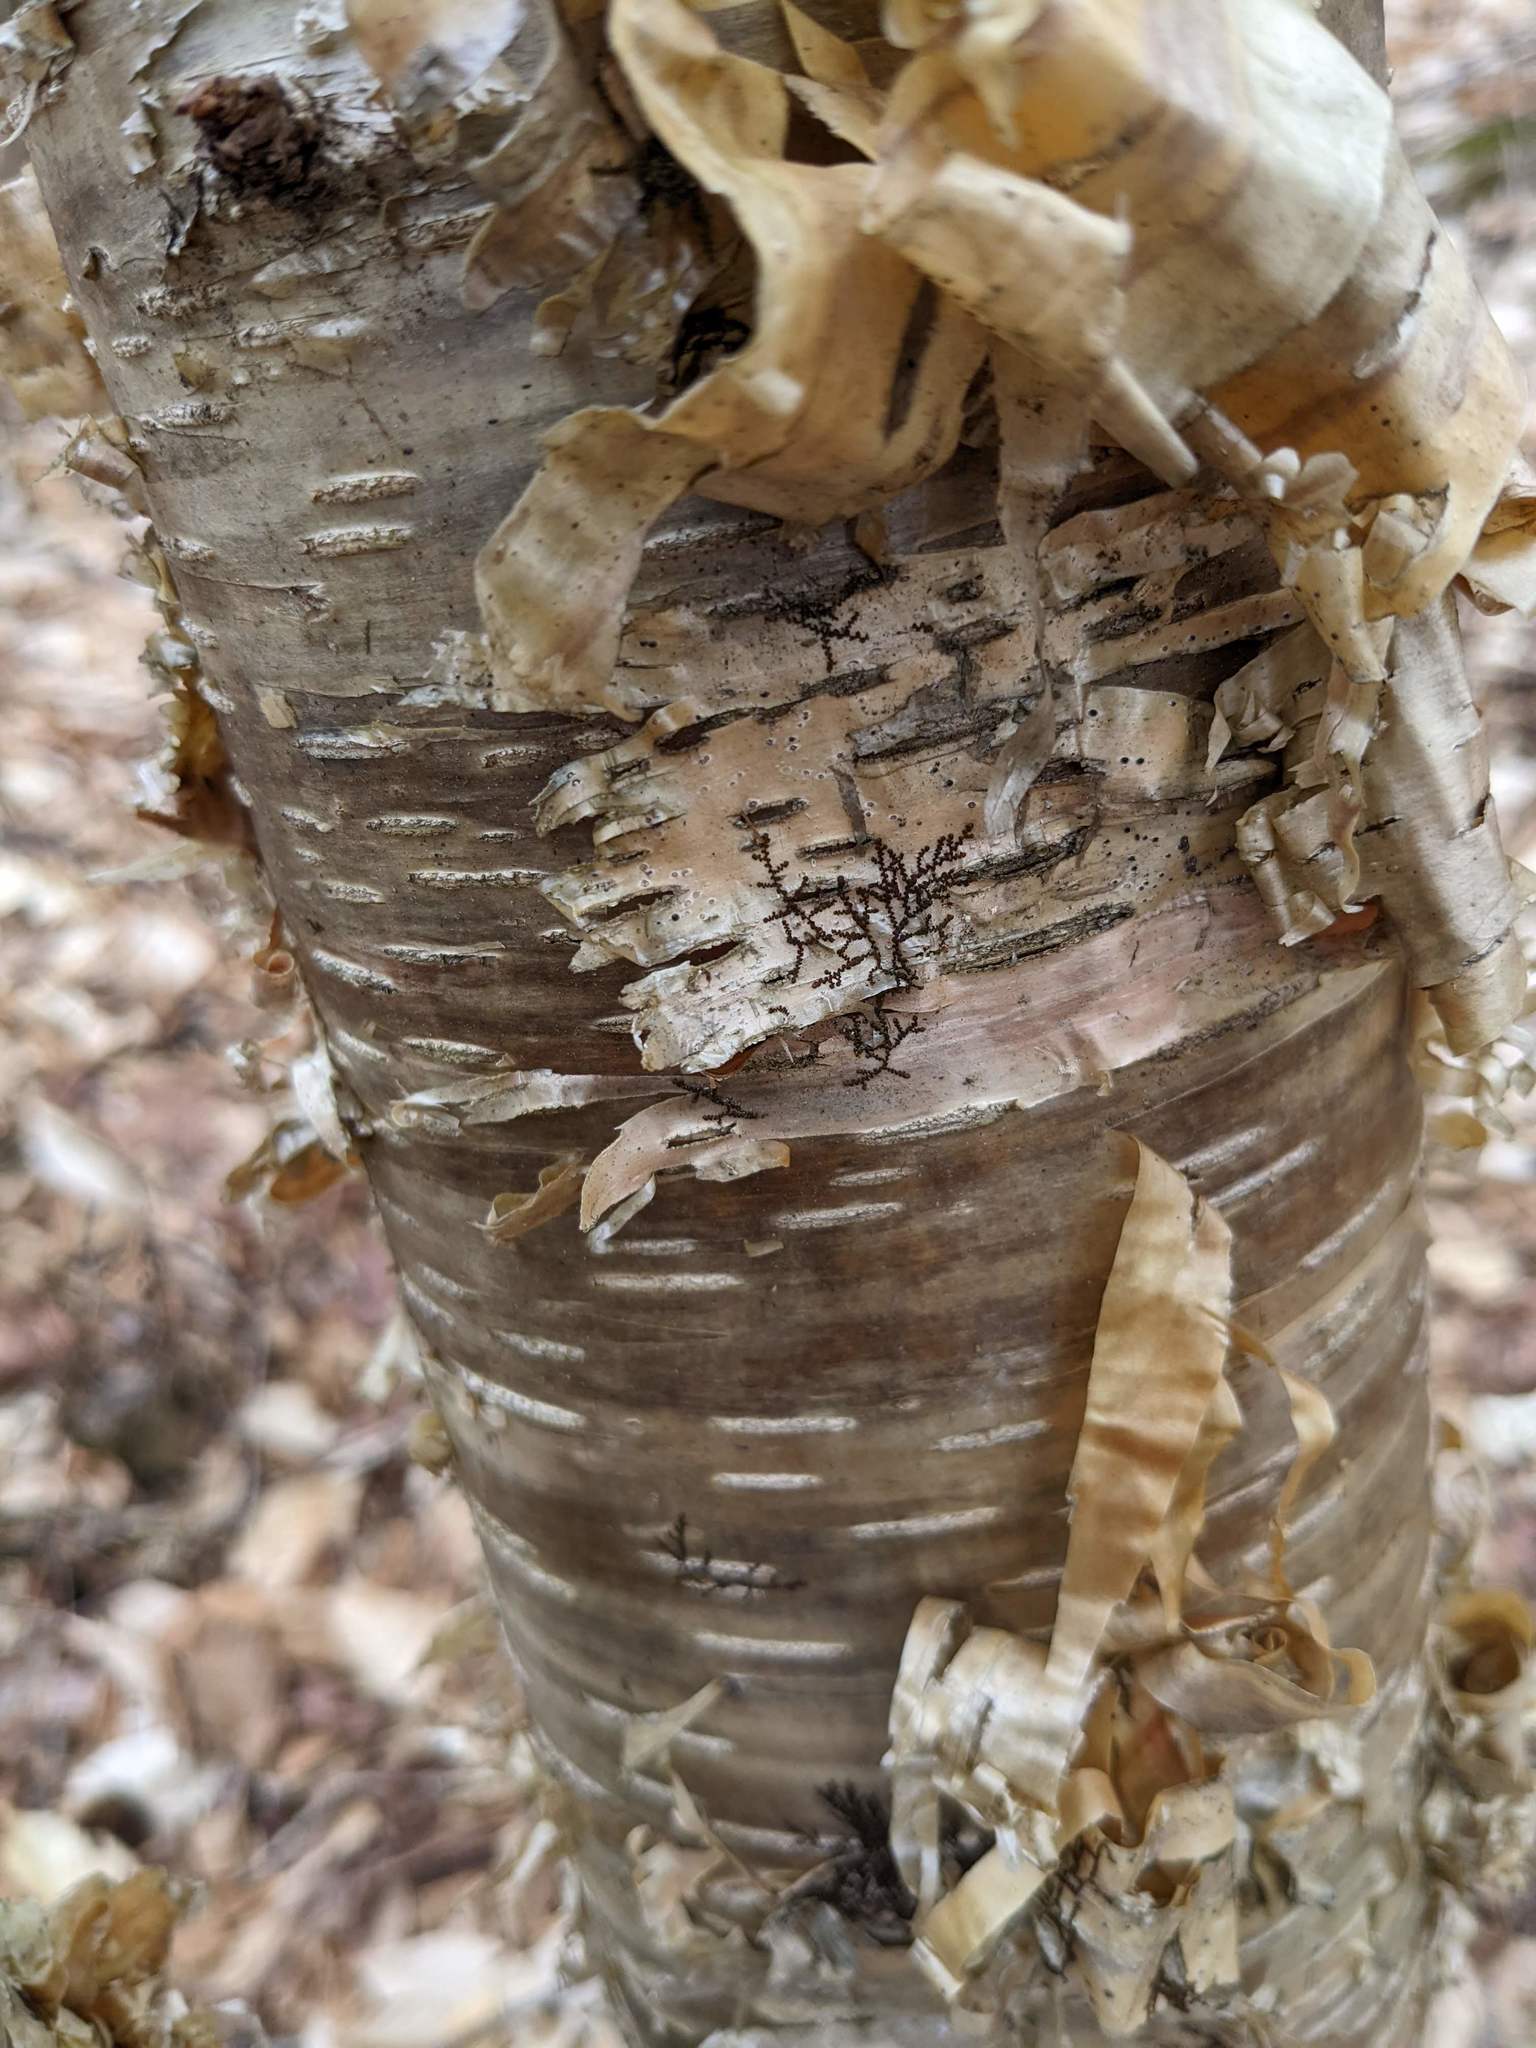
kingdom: Plantae
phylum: Tracheophyta
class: Magnoliopsida
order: Fagales
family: Betulaceae
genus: Betula
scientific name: Betula alleghaniensis
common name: Yellow birch
